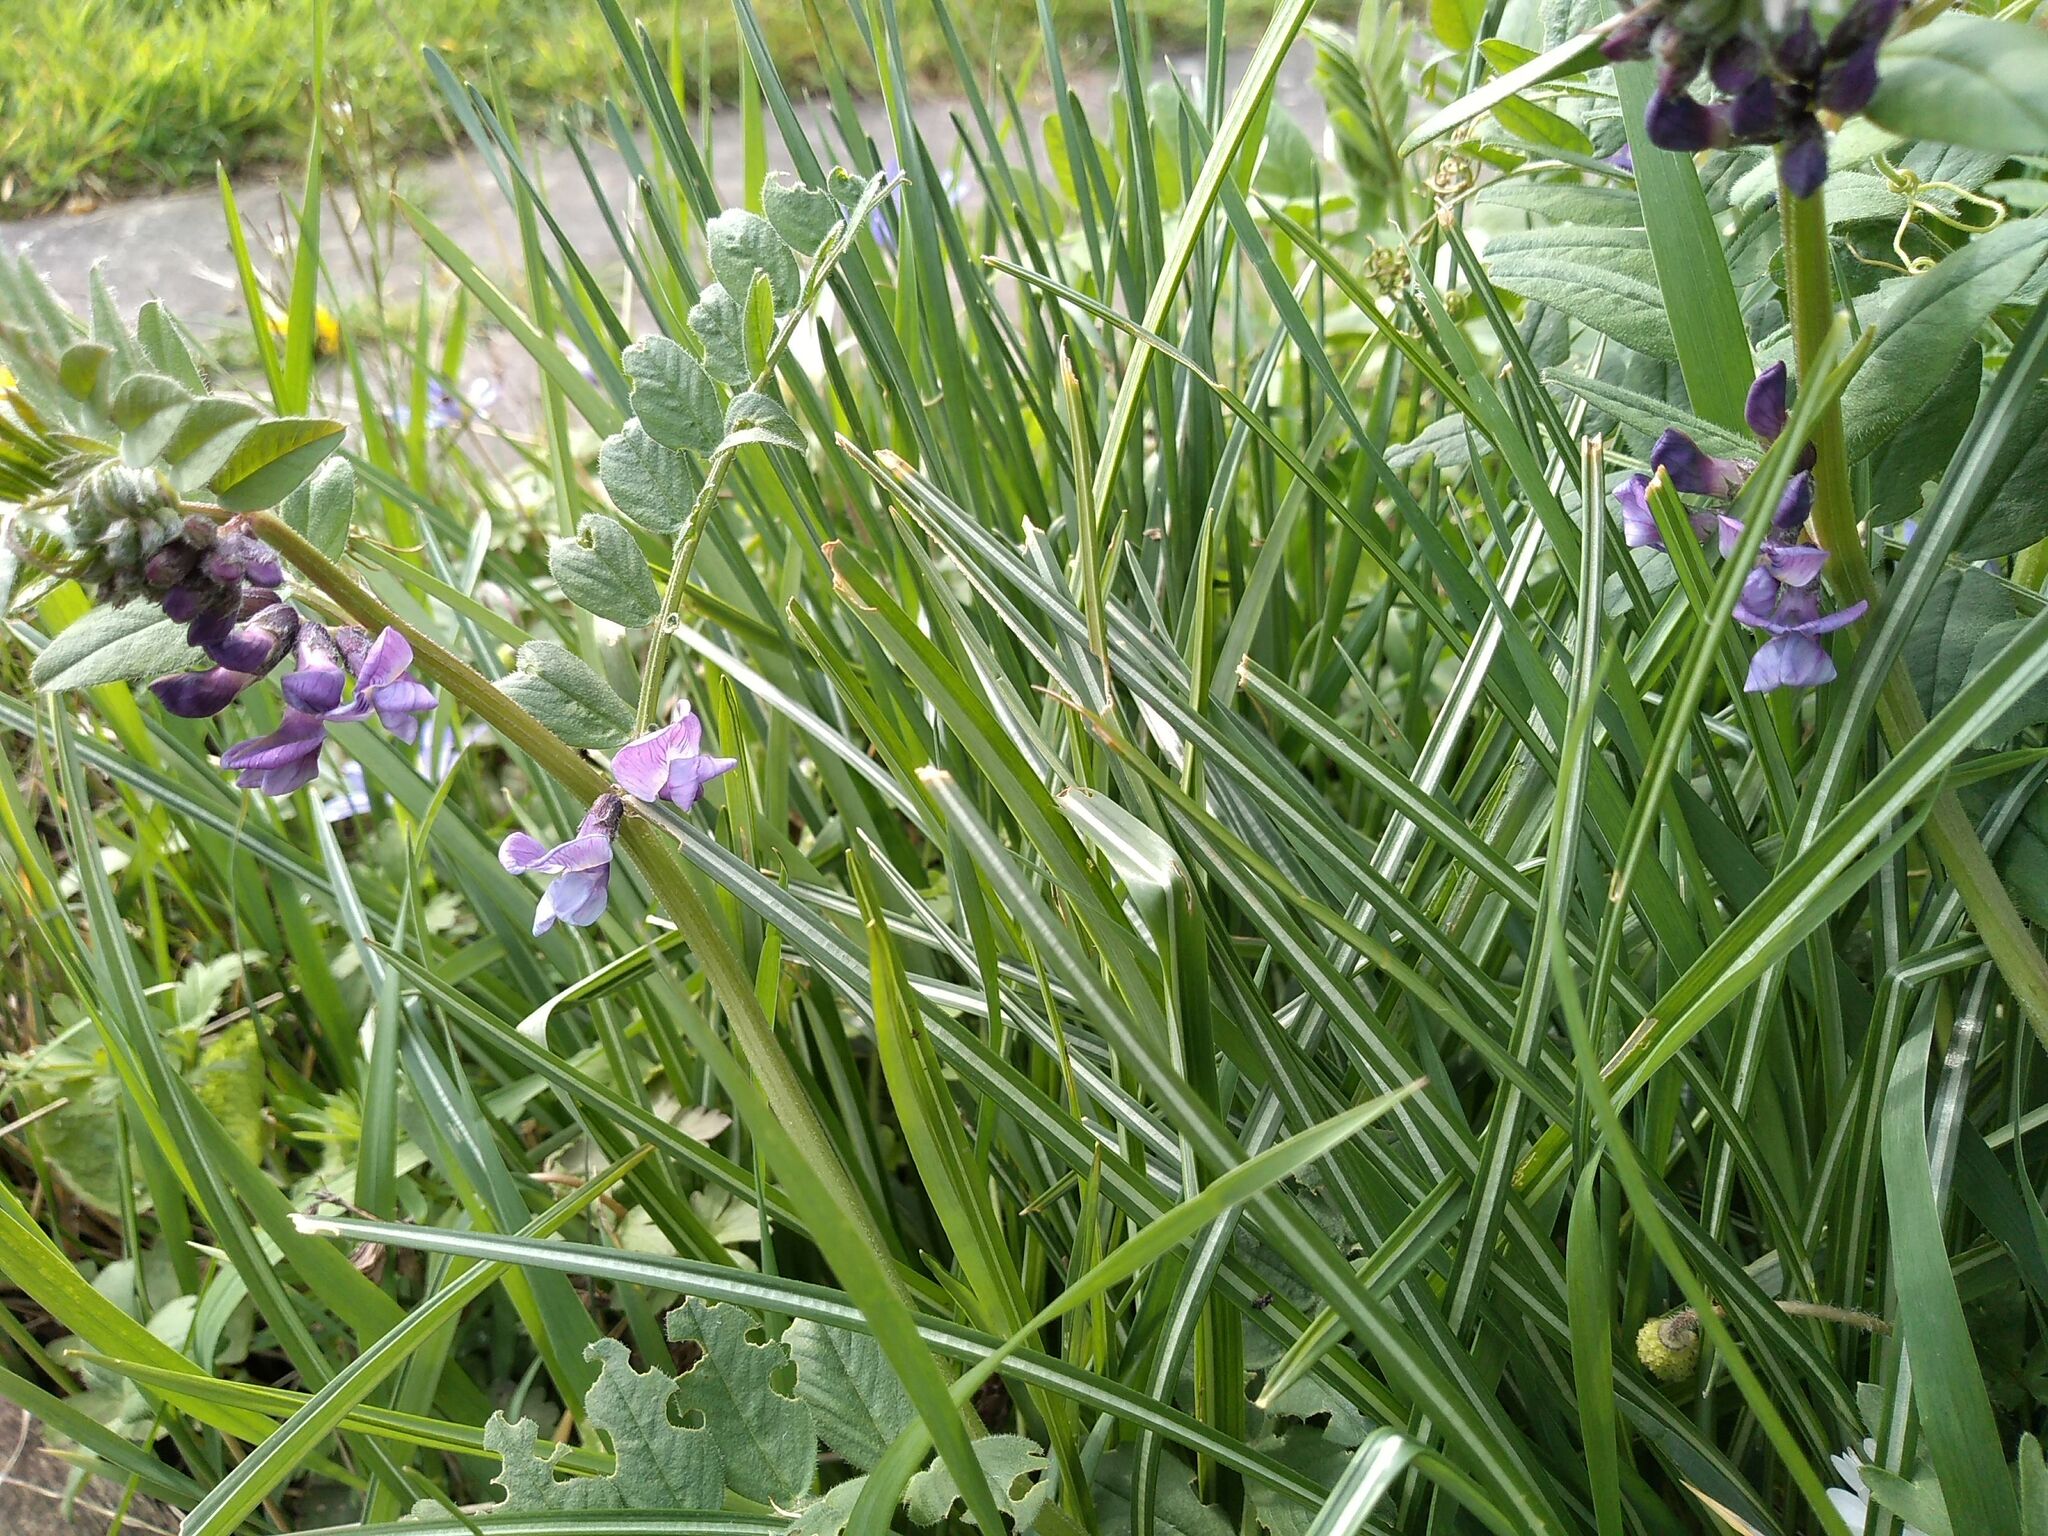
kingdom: Plantae
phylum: Tracheophyta
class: Magnoliopsida
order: Fabales
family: Fabaceae
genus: Vicia
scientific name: Vicia sepium
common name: Bush vetch
